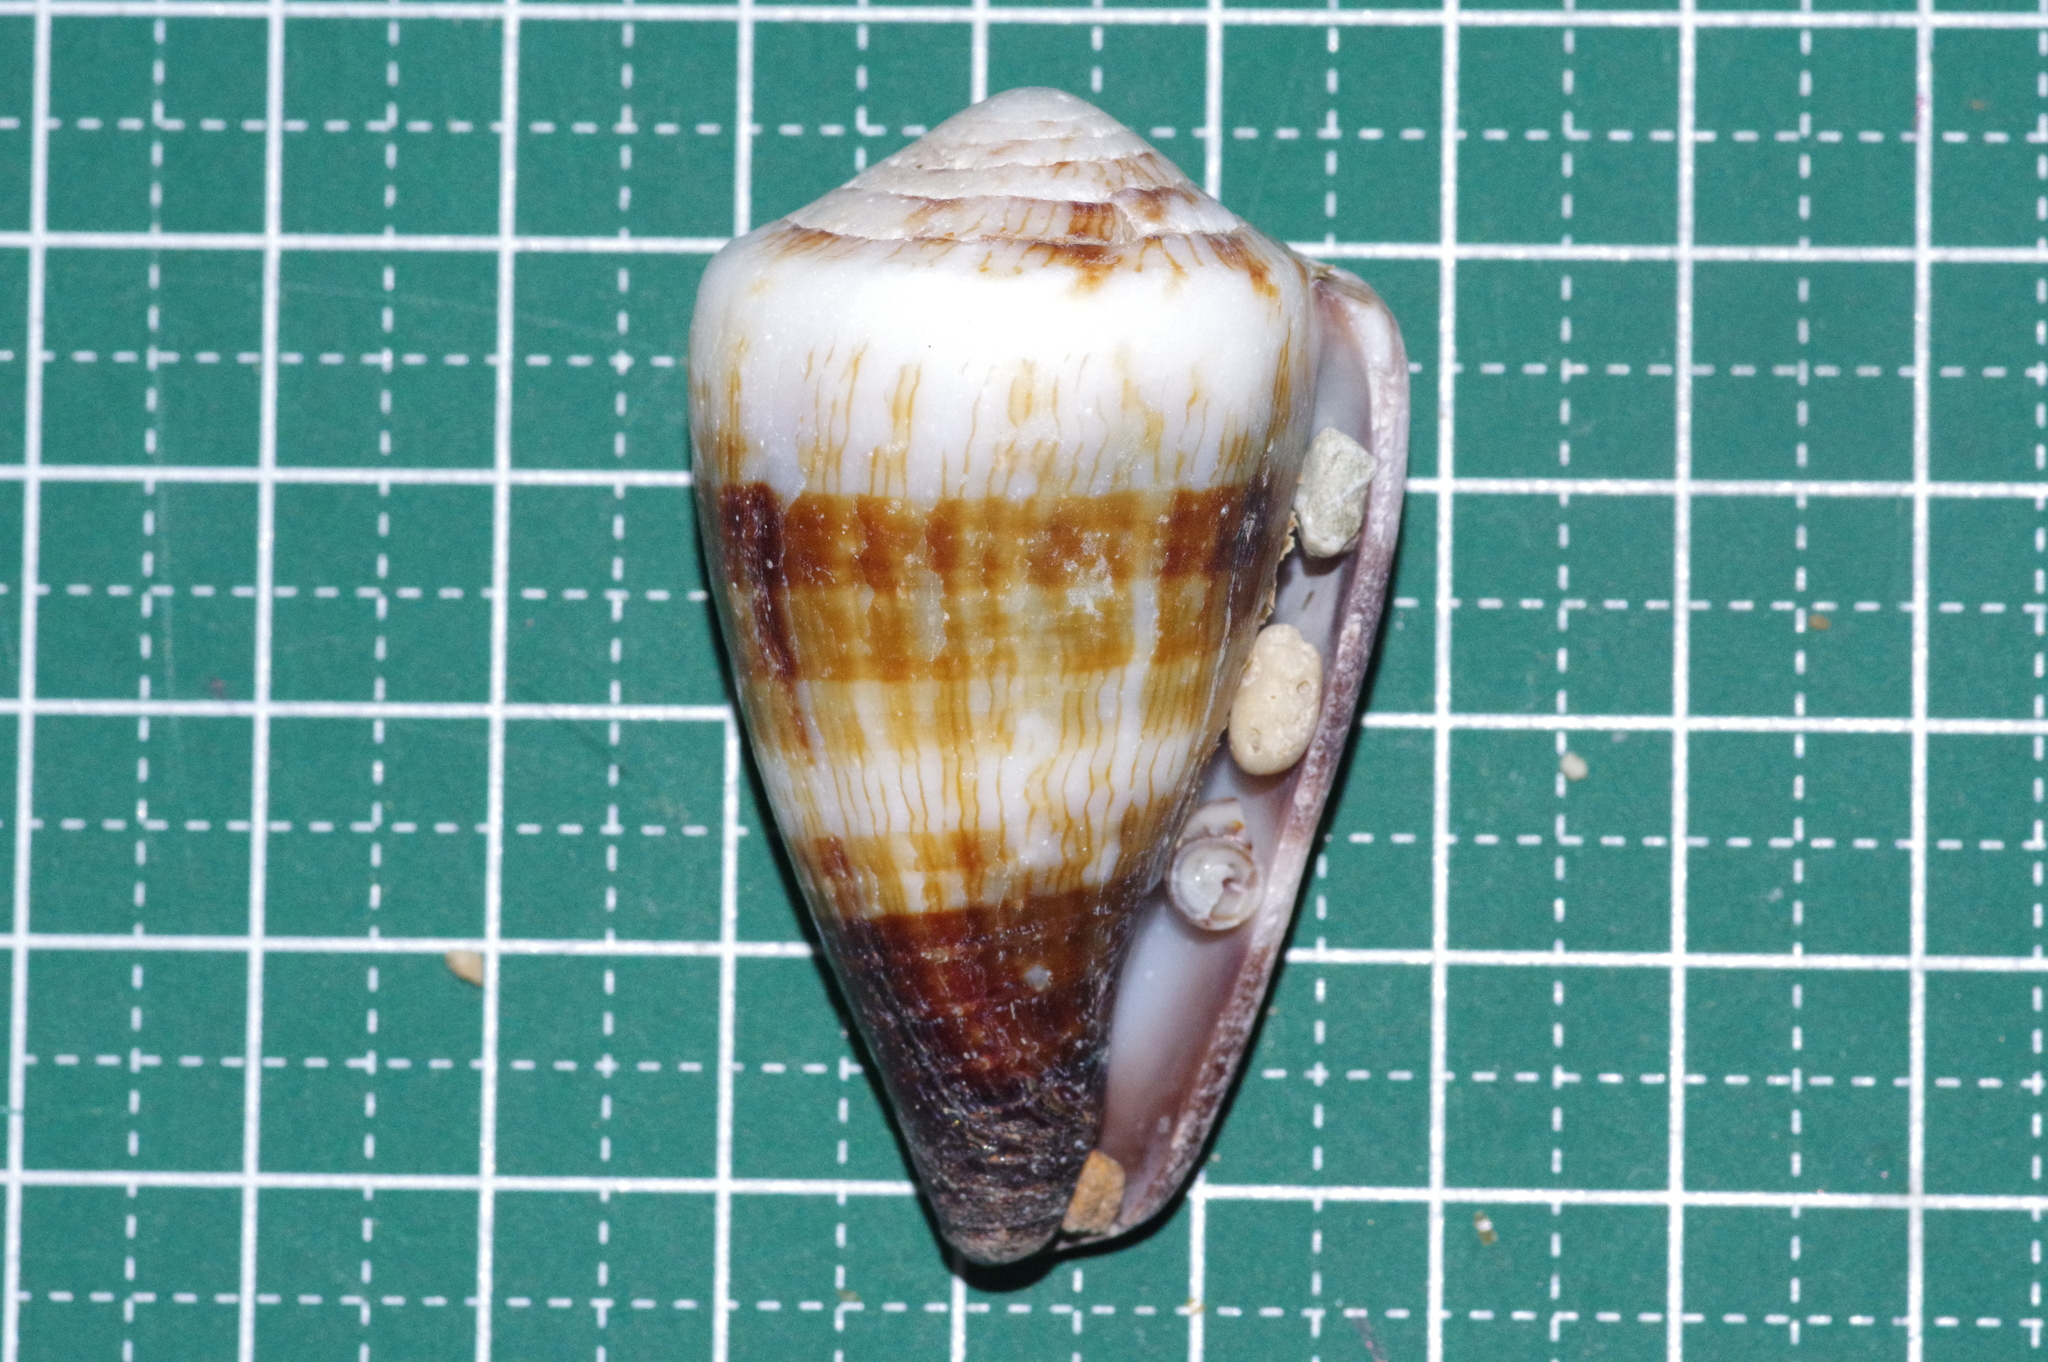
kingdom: Animalia
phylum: Mollusca
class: Gastropoda
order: Neogastropoda
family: Conidae
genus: Conus
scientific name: Conus miles
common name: Soldier cone
